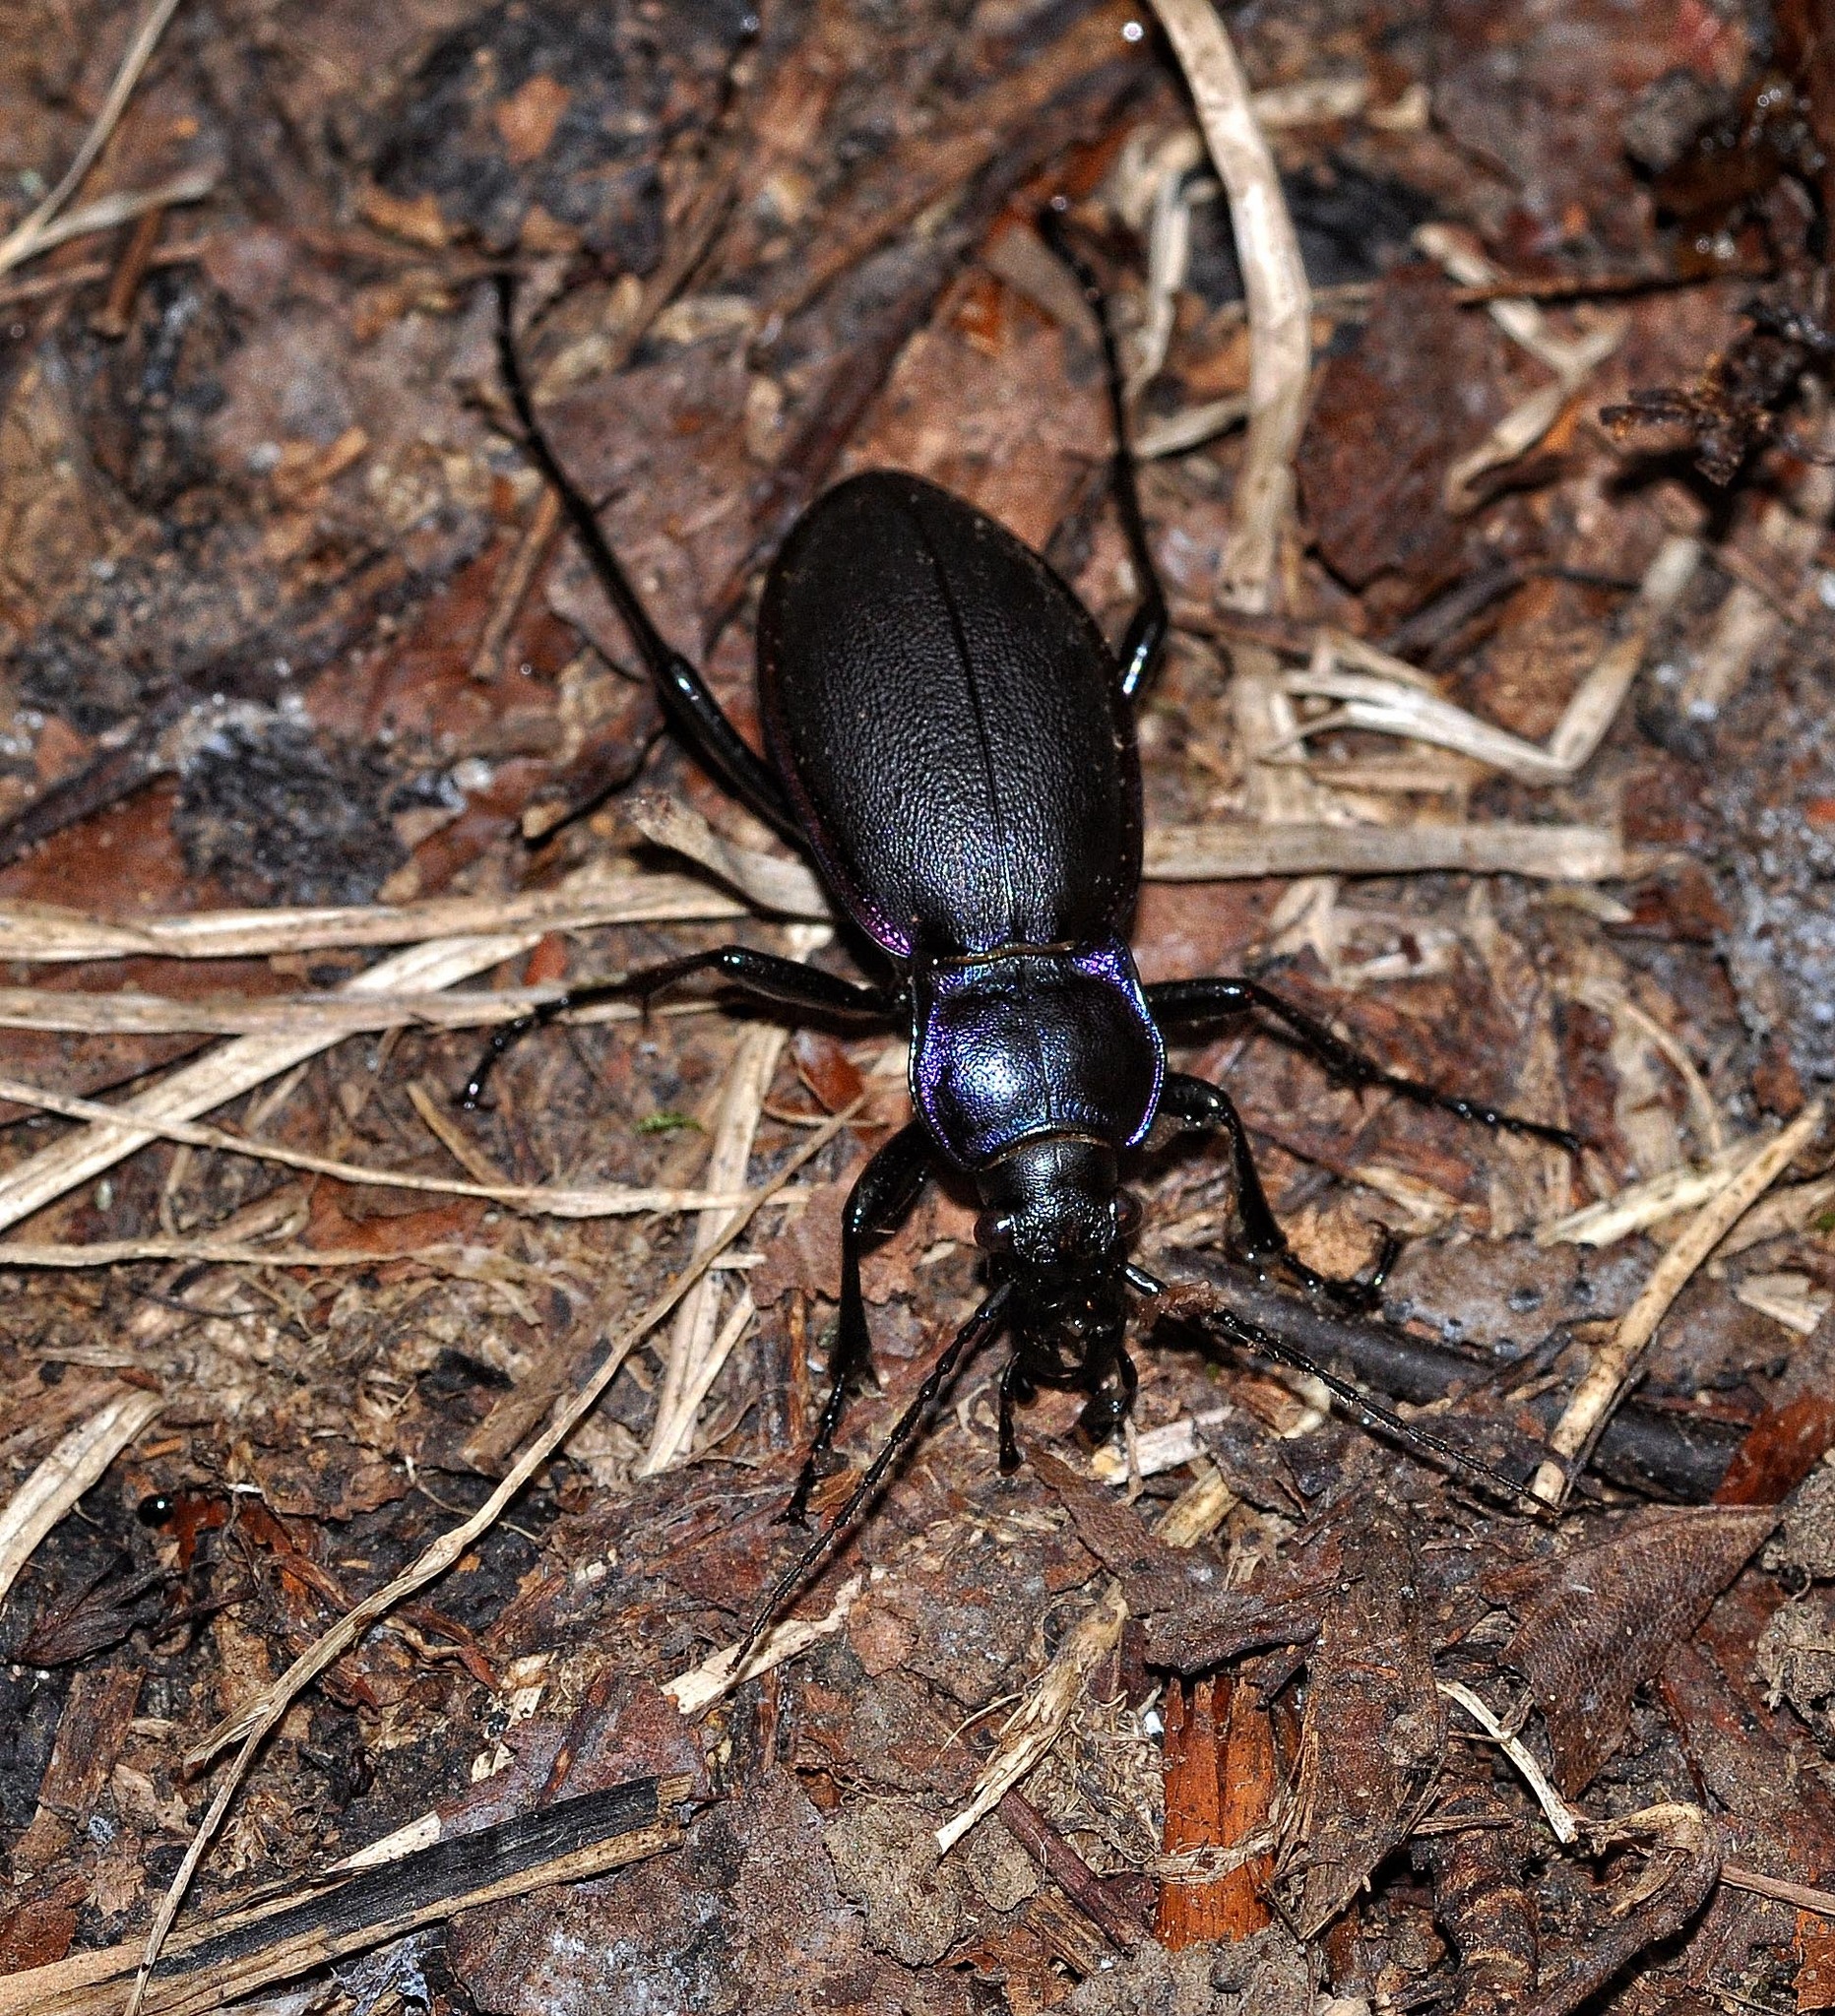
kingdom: Animalia
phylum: Arthropoda
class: Insecta
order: Coleoptera
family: Carabidae
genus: Carabus
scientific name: Carabus violaceus
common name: Violet ground beetle
